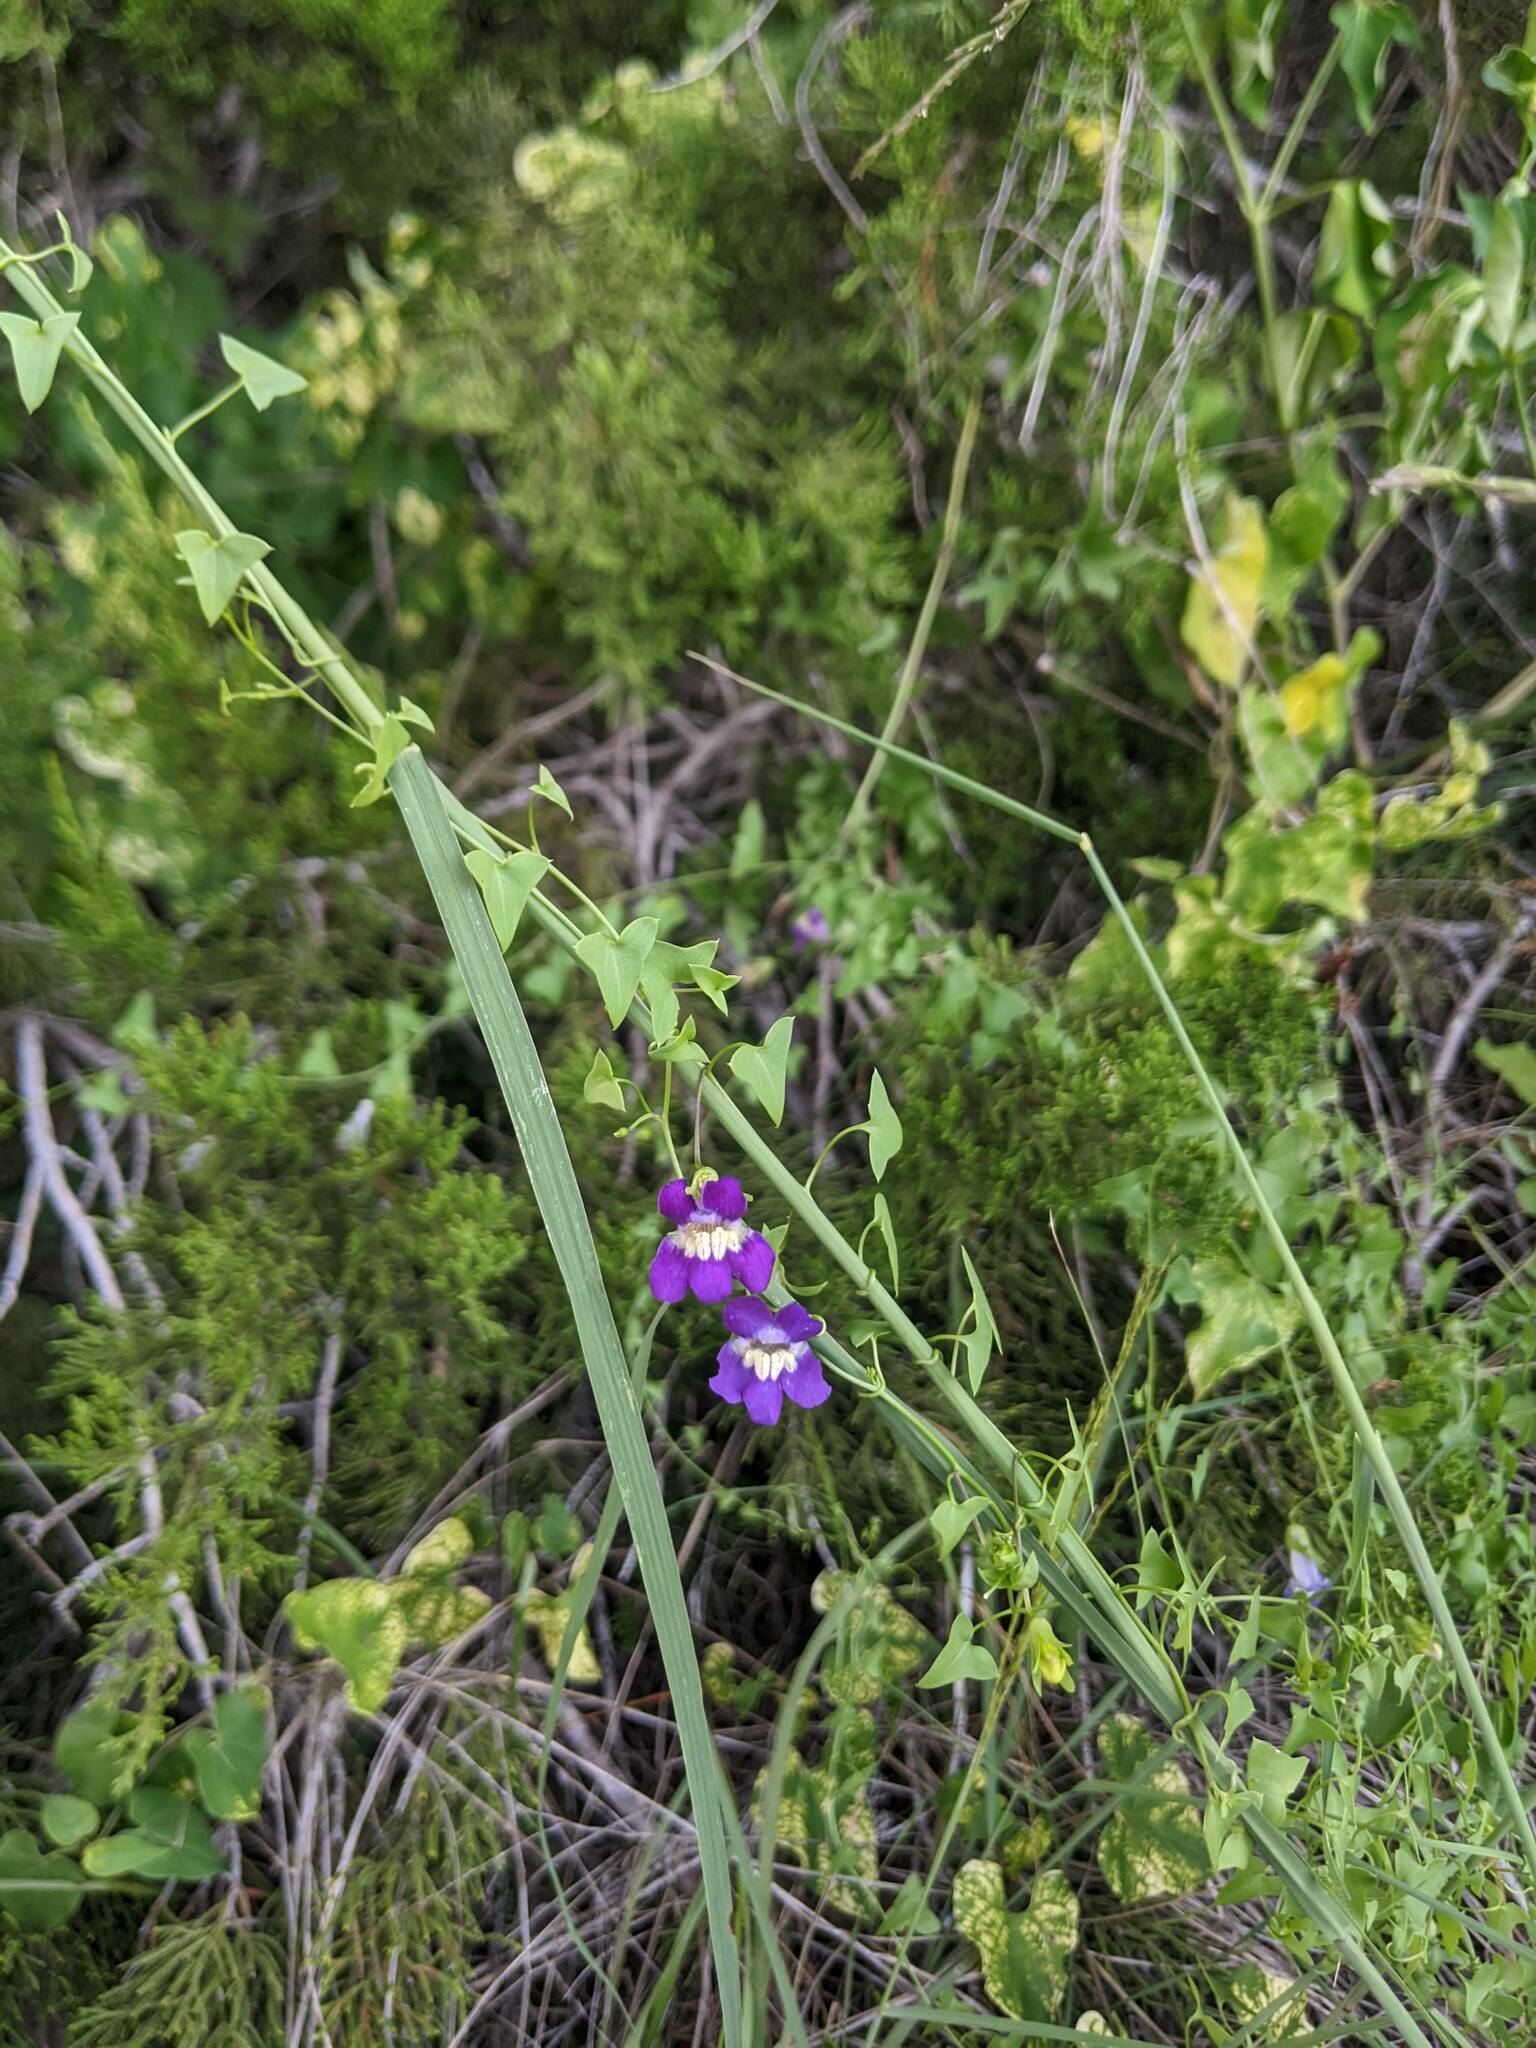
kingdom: Plantae
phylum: Tracheophyta
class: Magnoliopsida
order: Lamiales
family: Plantaginaceae
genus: Maurandella
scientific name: Maurandella antirrhiniflora
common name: Violet twining-snapdragon
